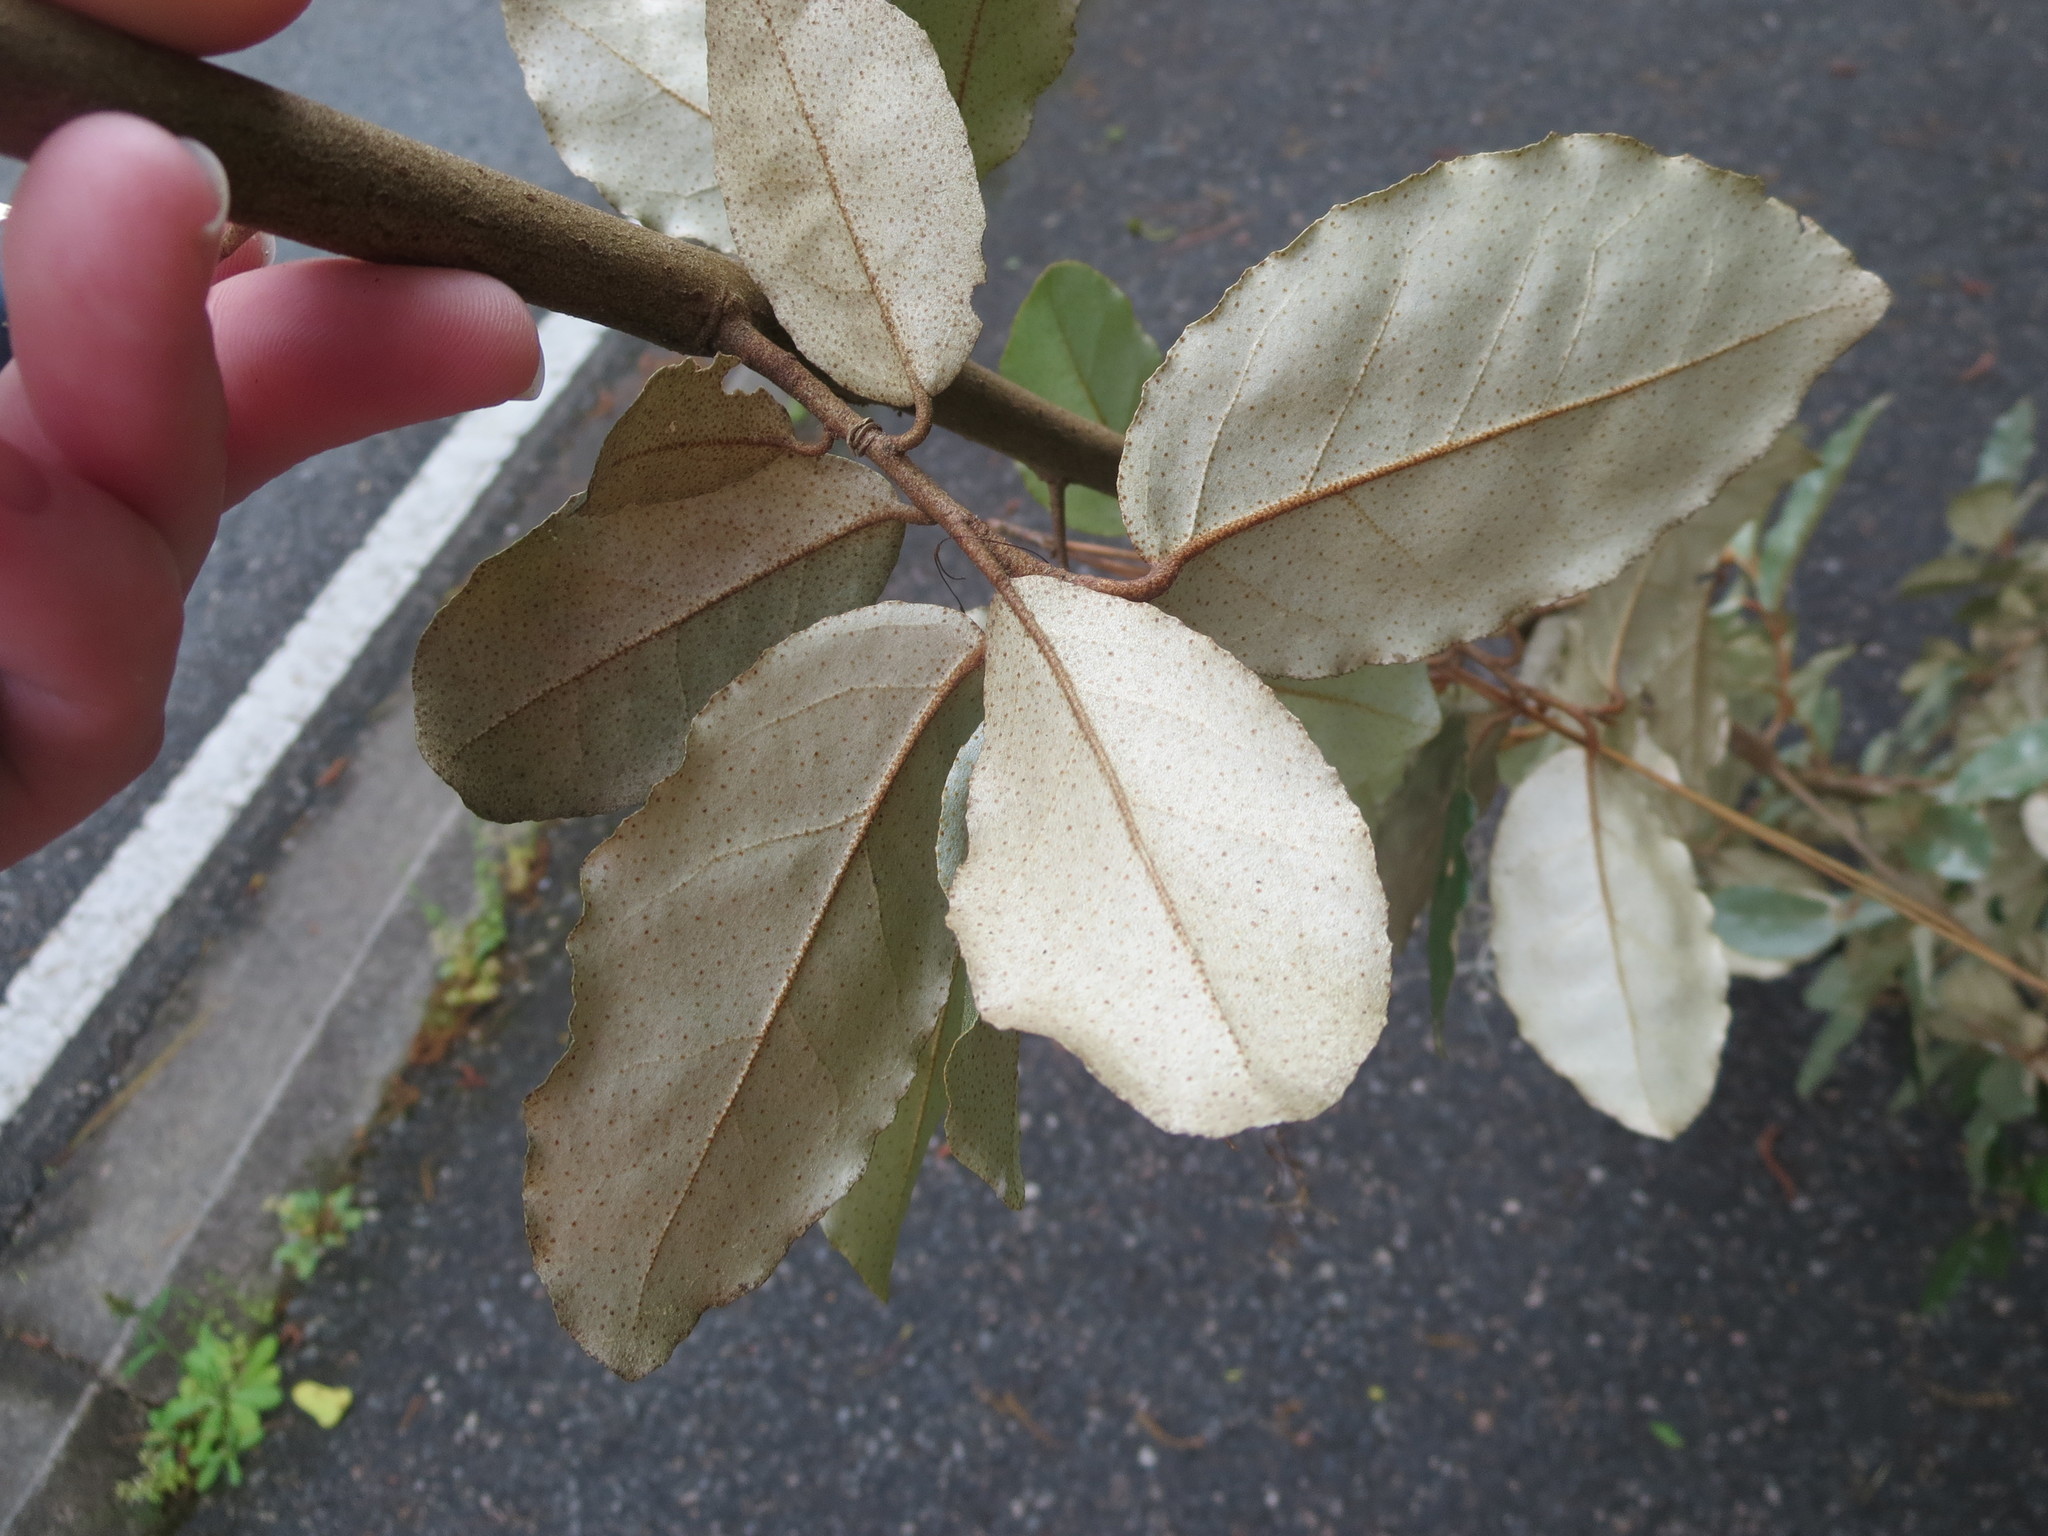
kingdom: Plantae
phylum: Tracheophyta
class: Magnoliopsida
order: Rosales
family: Elaeagnaceae
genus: Elaeagnus
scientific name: Elaeagnus pungens
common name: Spiny oleaster
